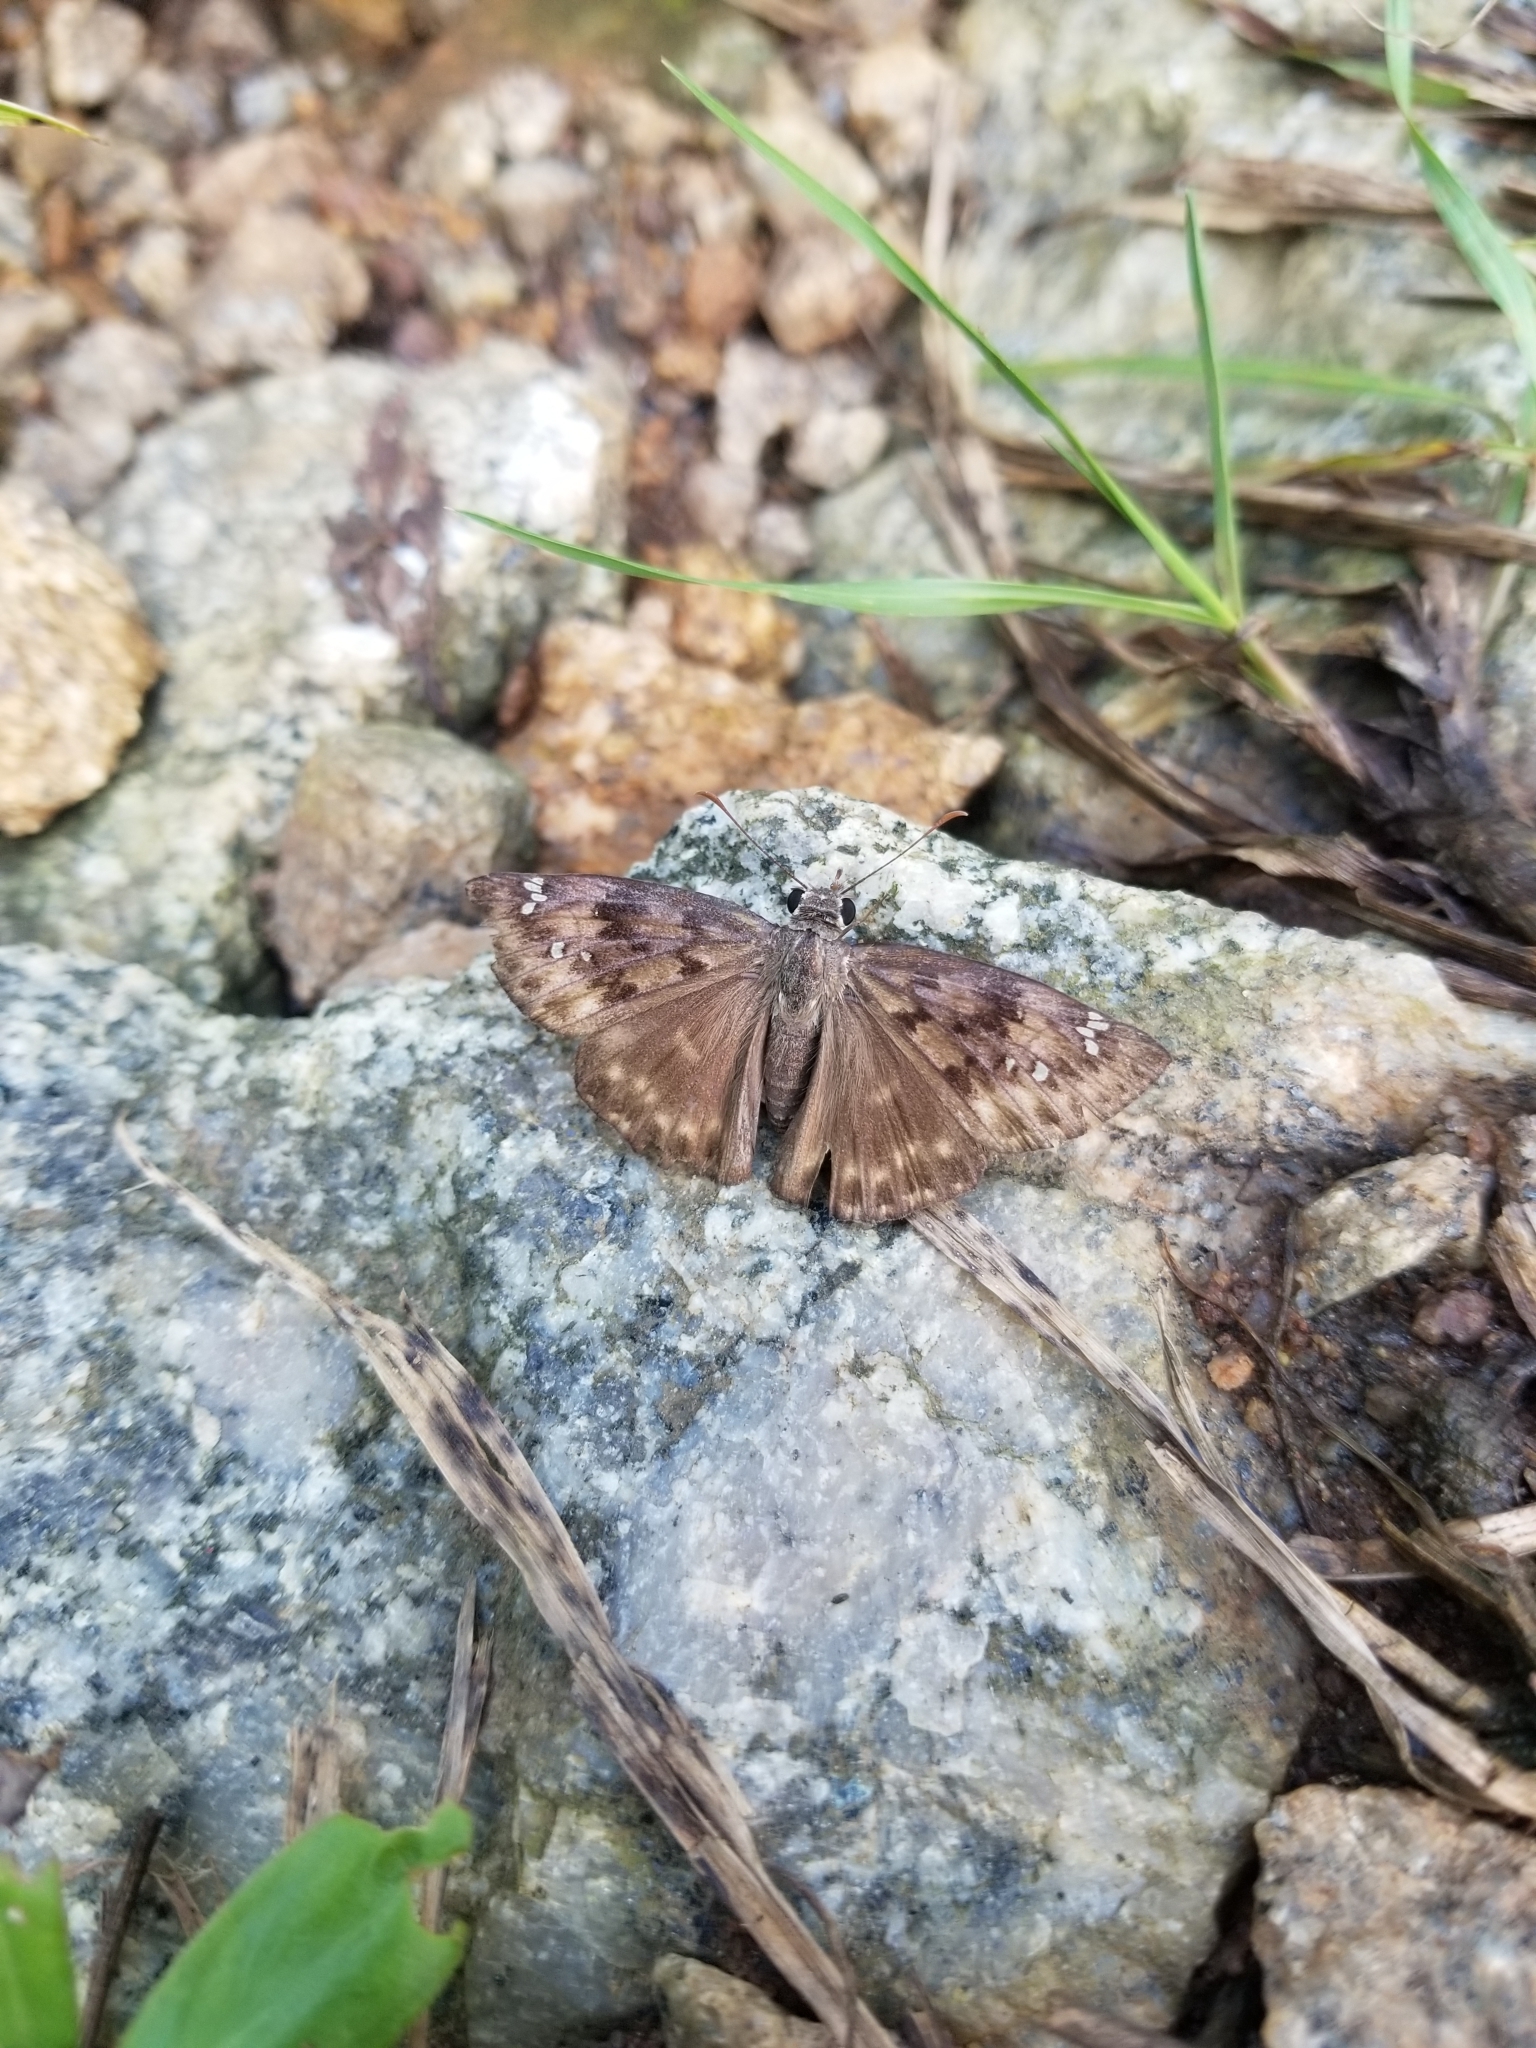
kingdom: Animalia
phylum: Arthropoda
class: Insecta
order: Lepidoptera
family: Hesperiidae
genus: Erynnis
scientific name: Erynnis horatius
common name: Horace's duskywing
